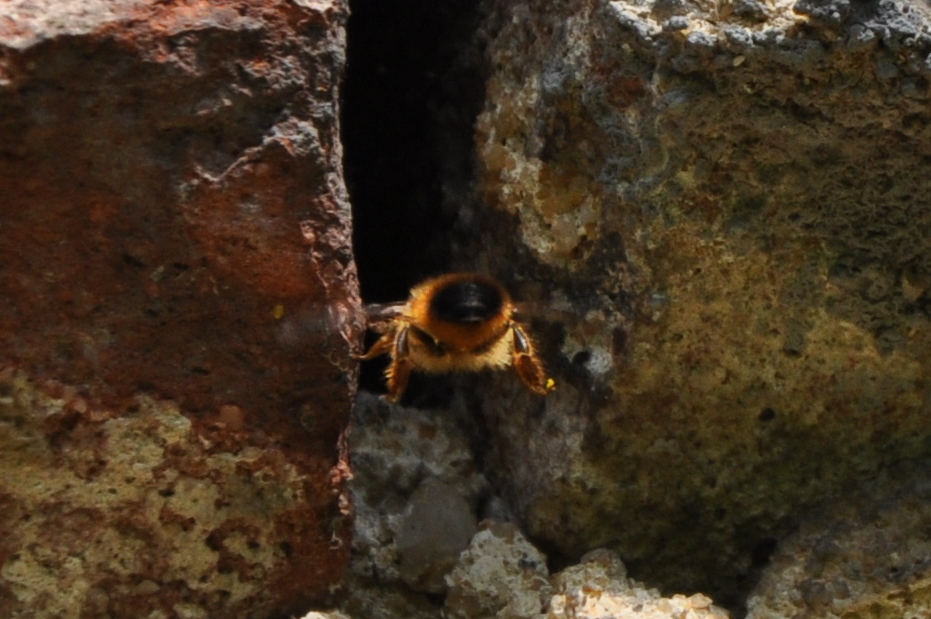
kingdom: Animalia
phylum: Arthropoda
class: Insecta
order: Hymenoptera
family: Megachilidae
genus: Osmia
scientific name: Osmia bicornis
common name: Red mason bee
